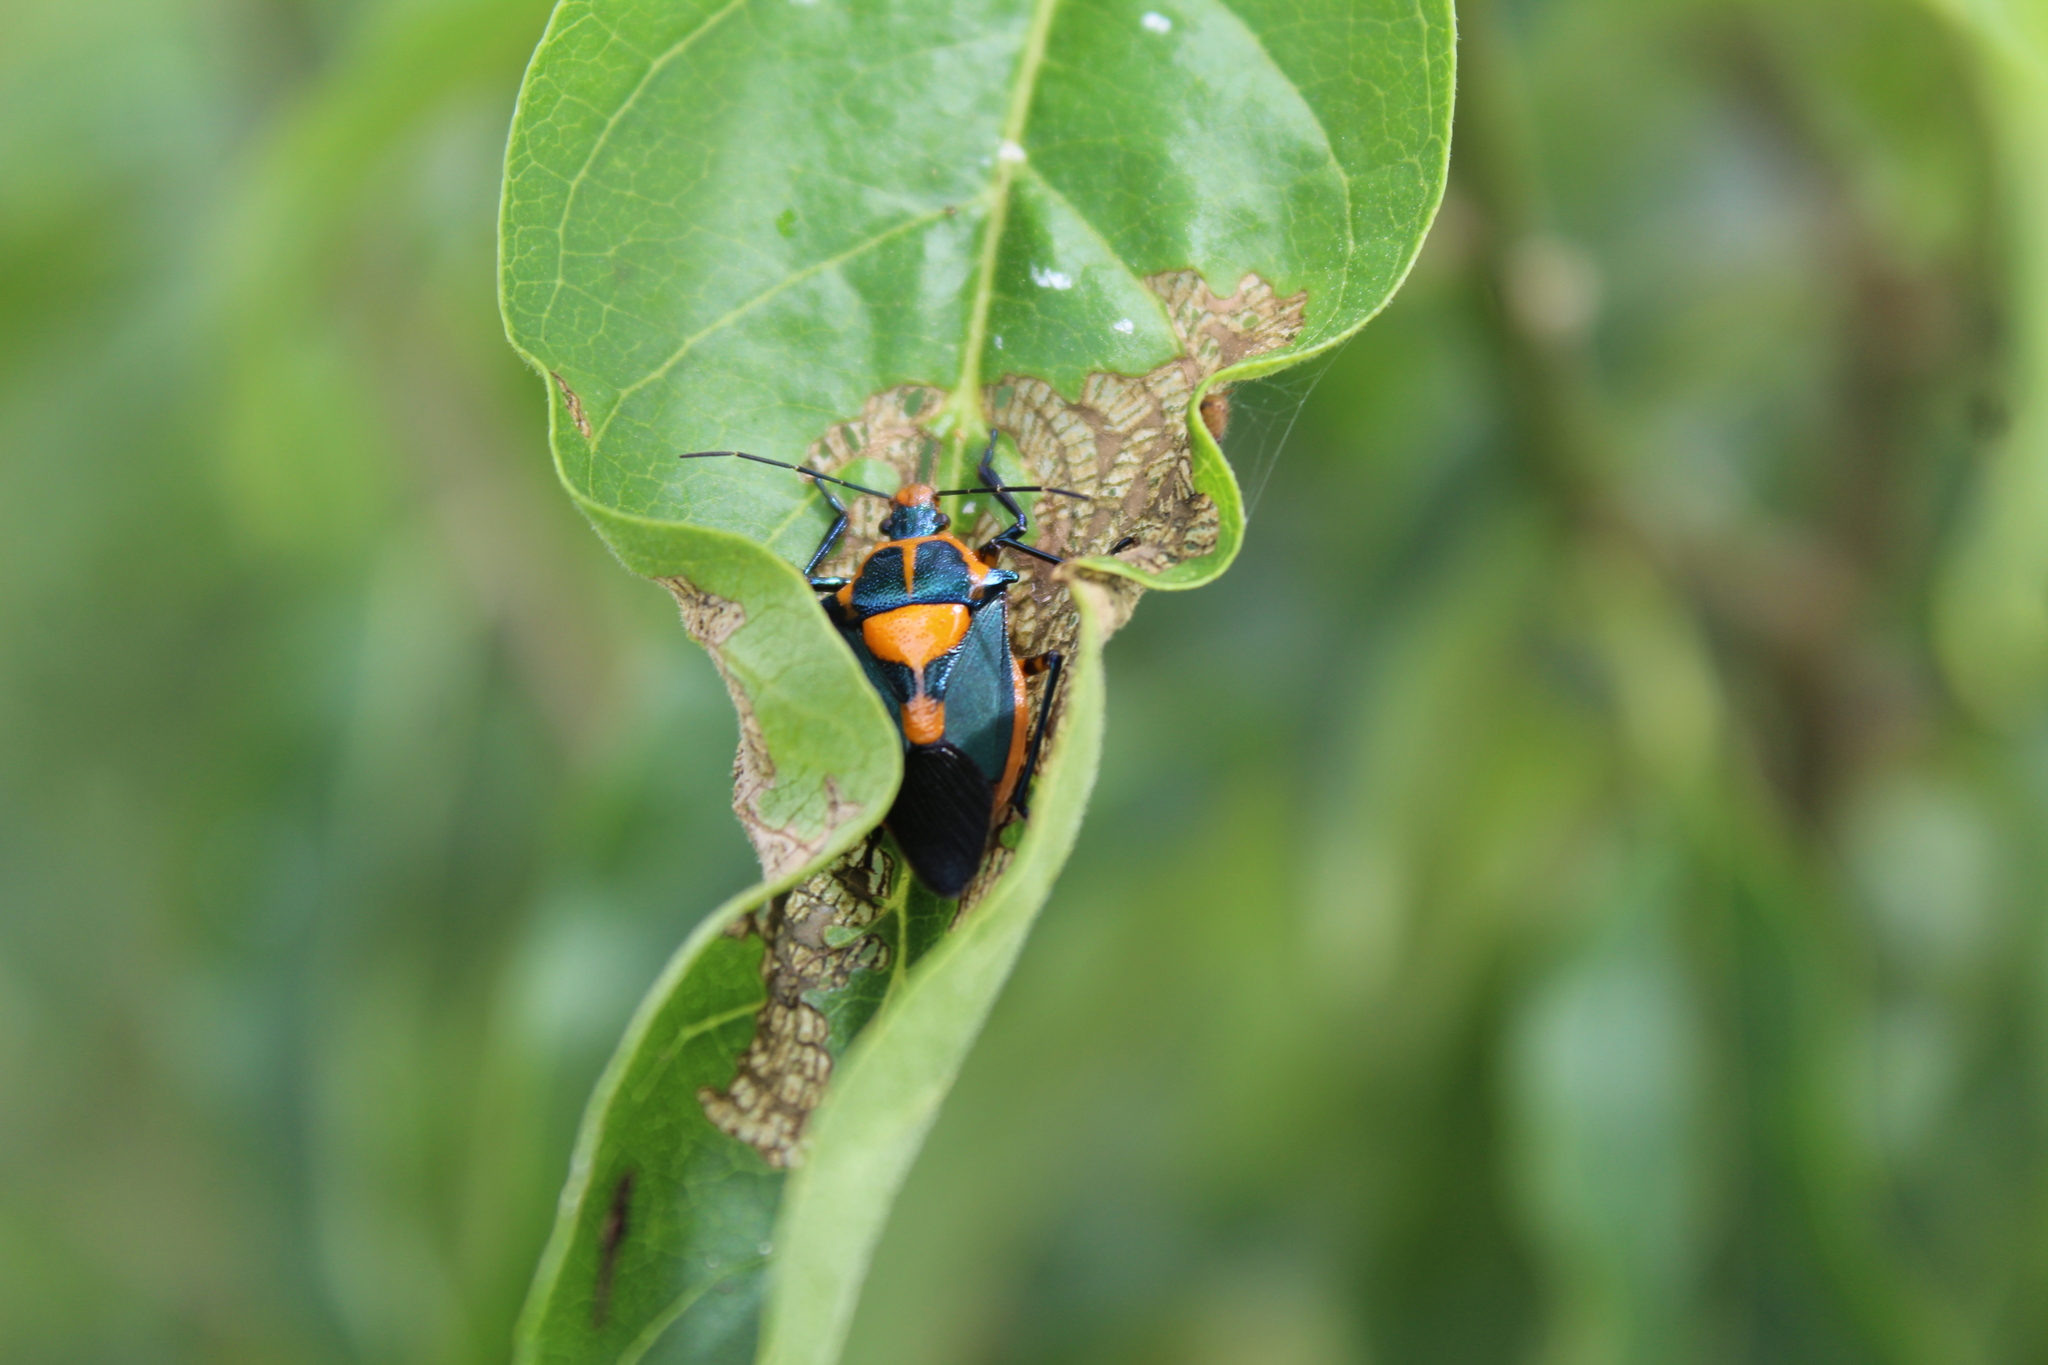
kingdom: Animalia
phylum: Arthropoda
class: Insecta
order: Hemiptera
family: Pentatomidae
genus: Euthyrhynchus
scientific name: Euthyrhynchus floridanus
